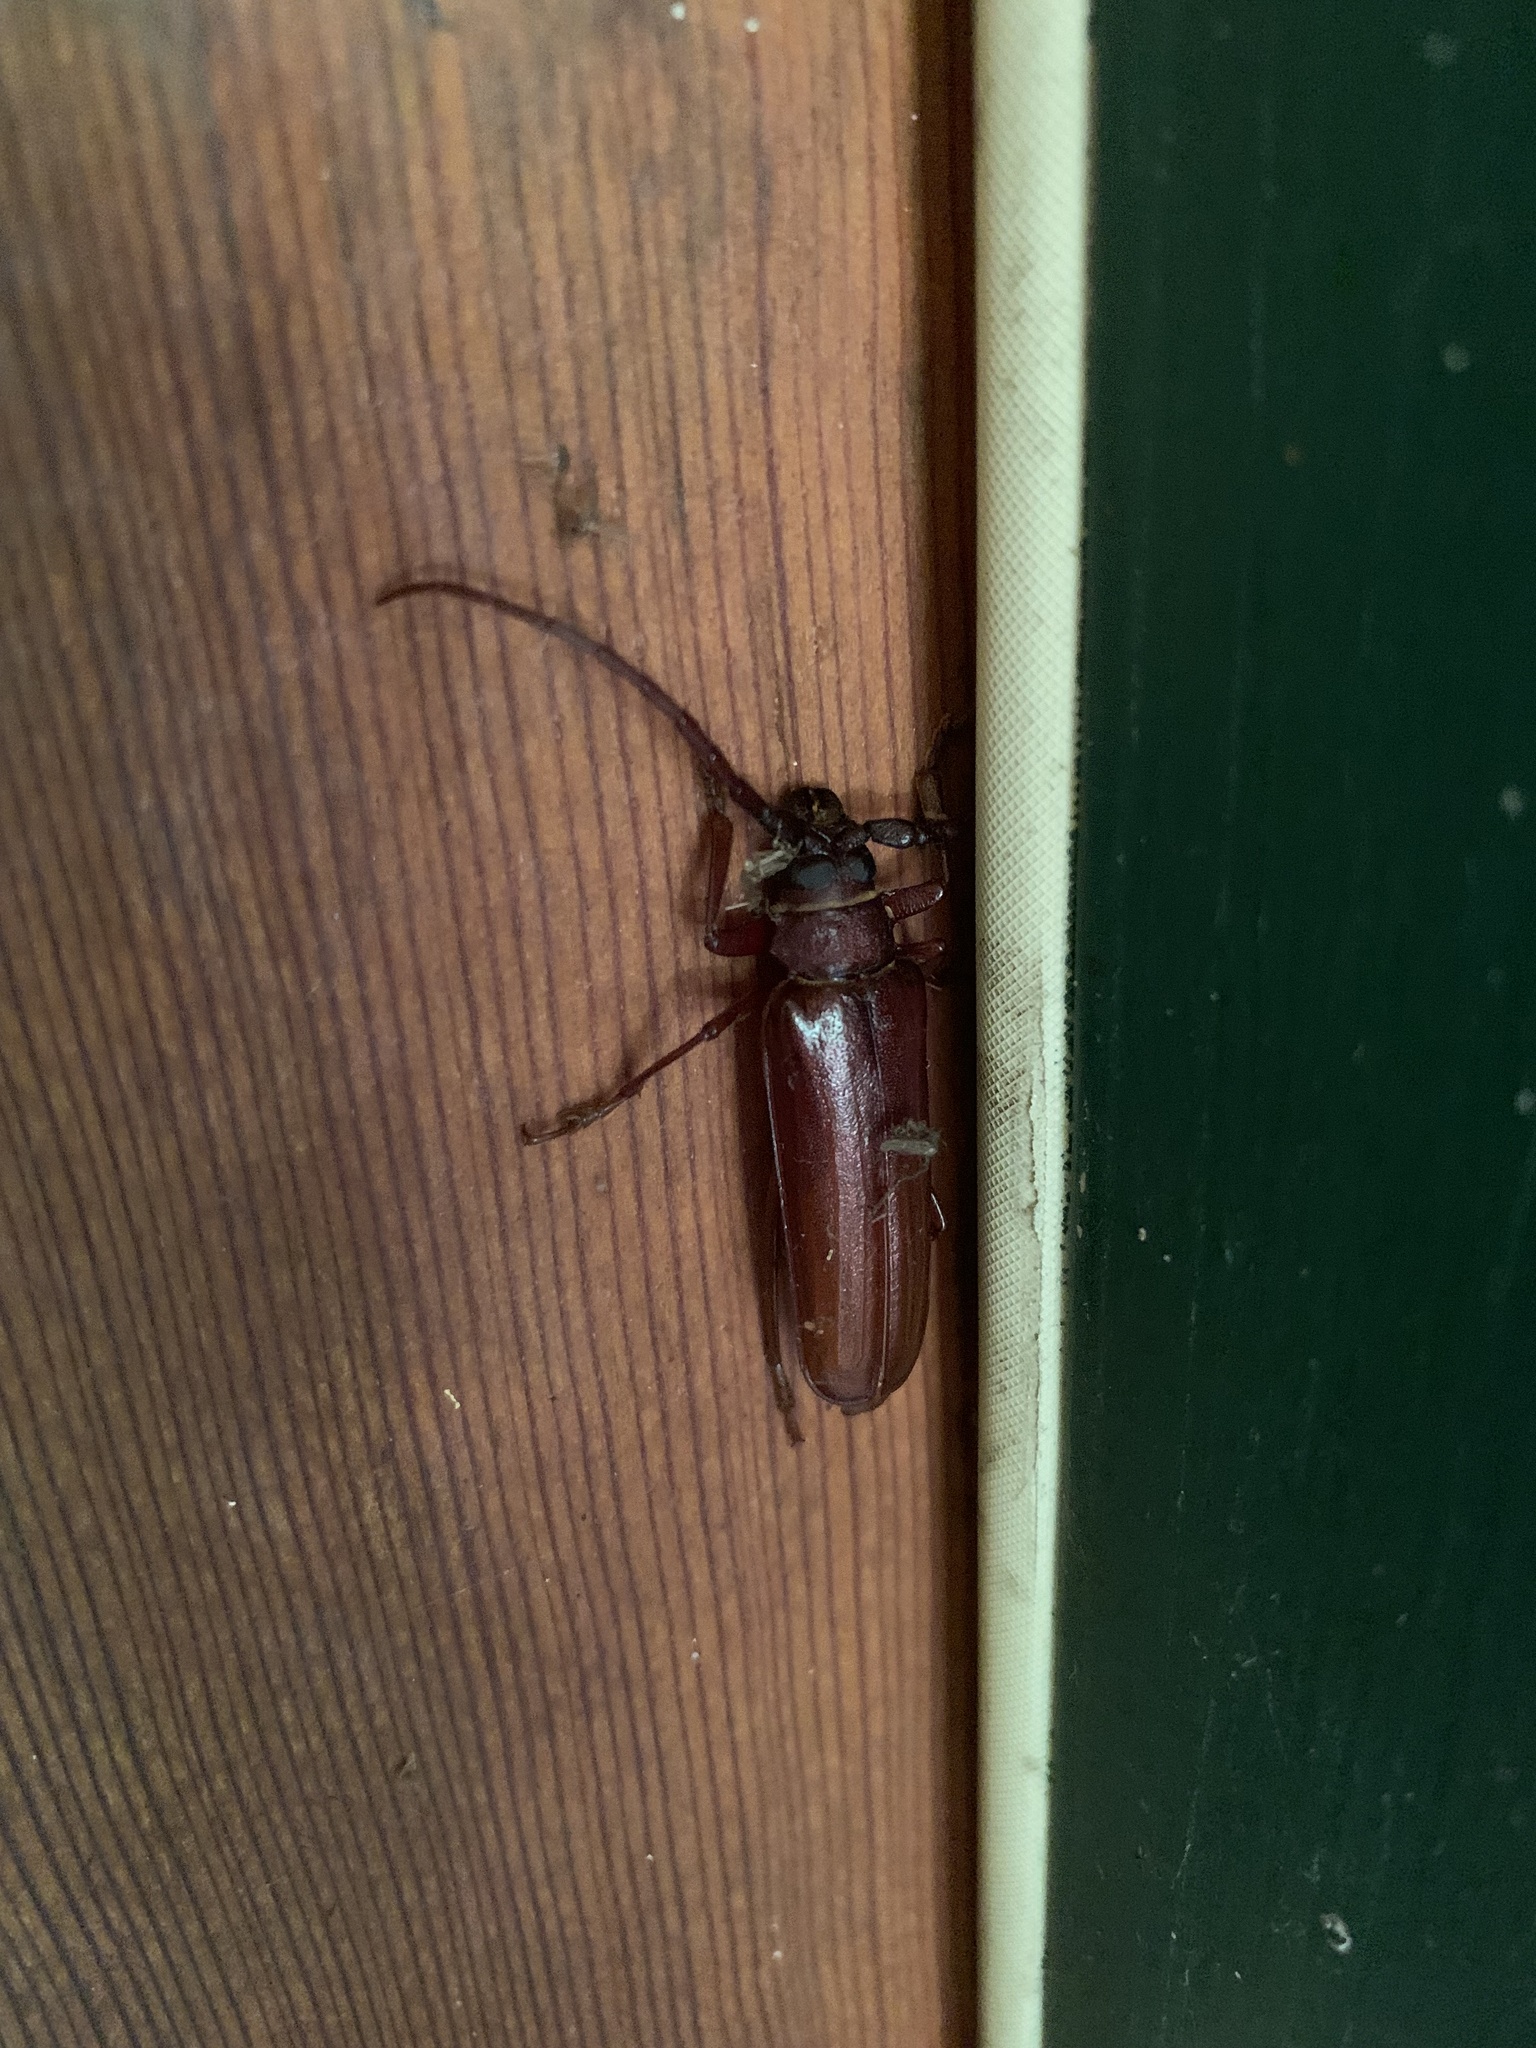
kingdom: Animalia
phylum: Arthropoda
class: Insecta
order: Coleoptera
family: Cerambycidae
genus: Orthosoma
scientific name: Orthosoma brunneum
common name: Brown prionid beetle
